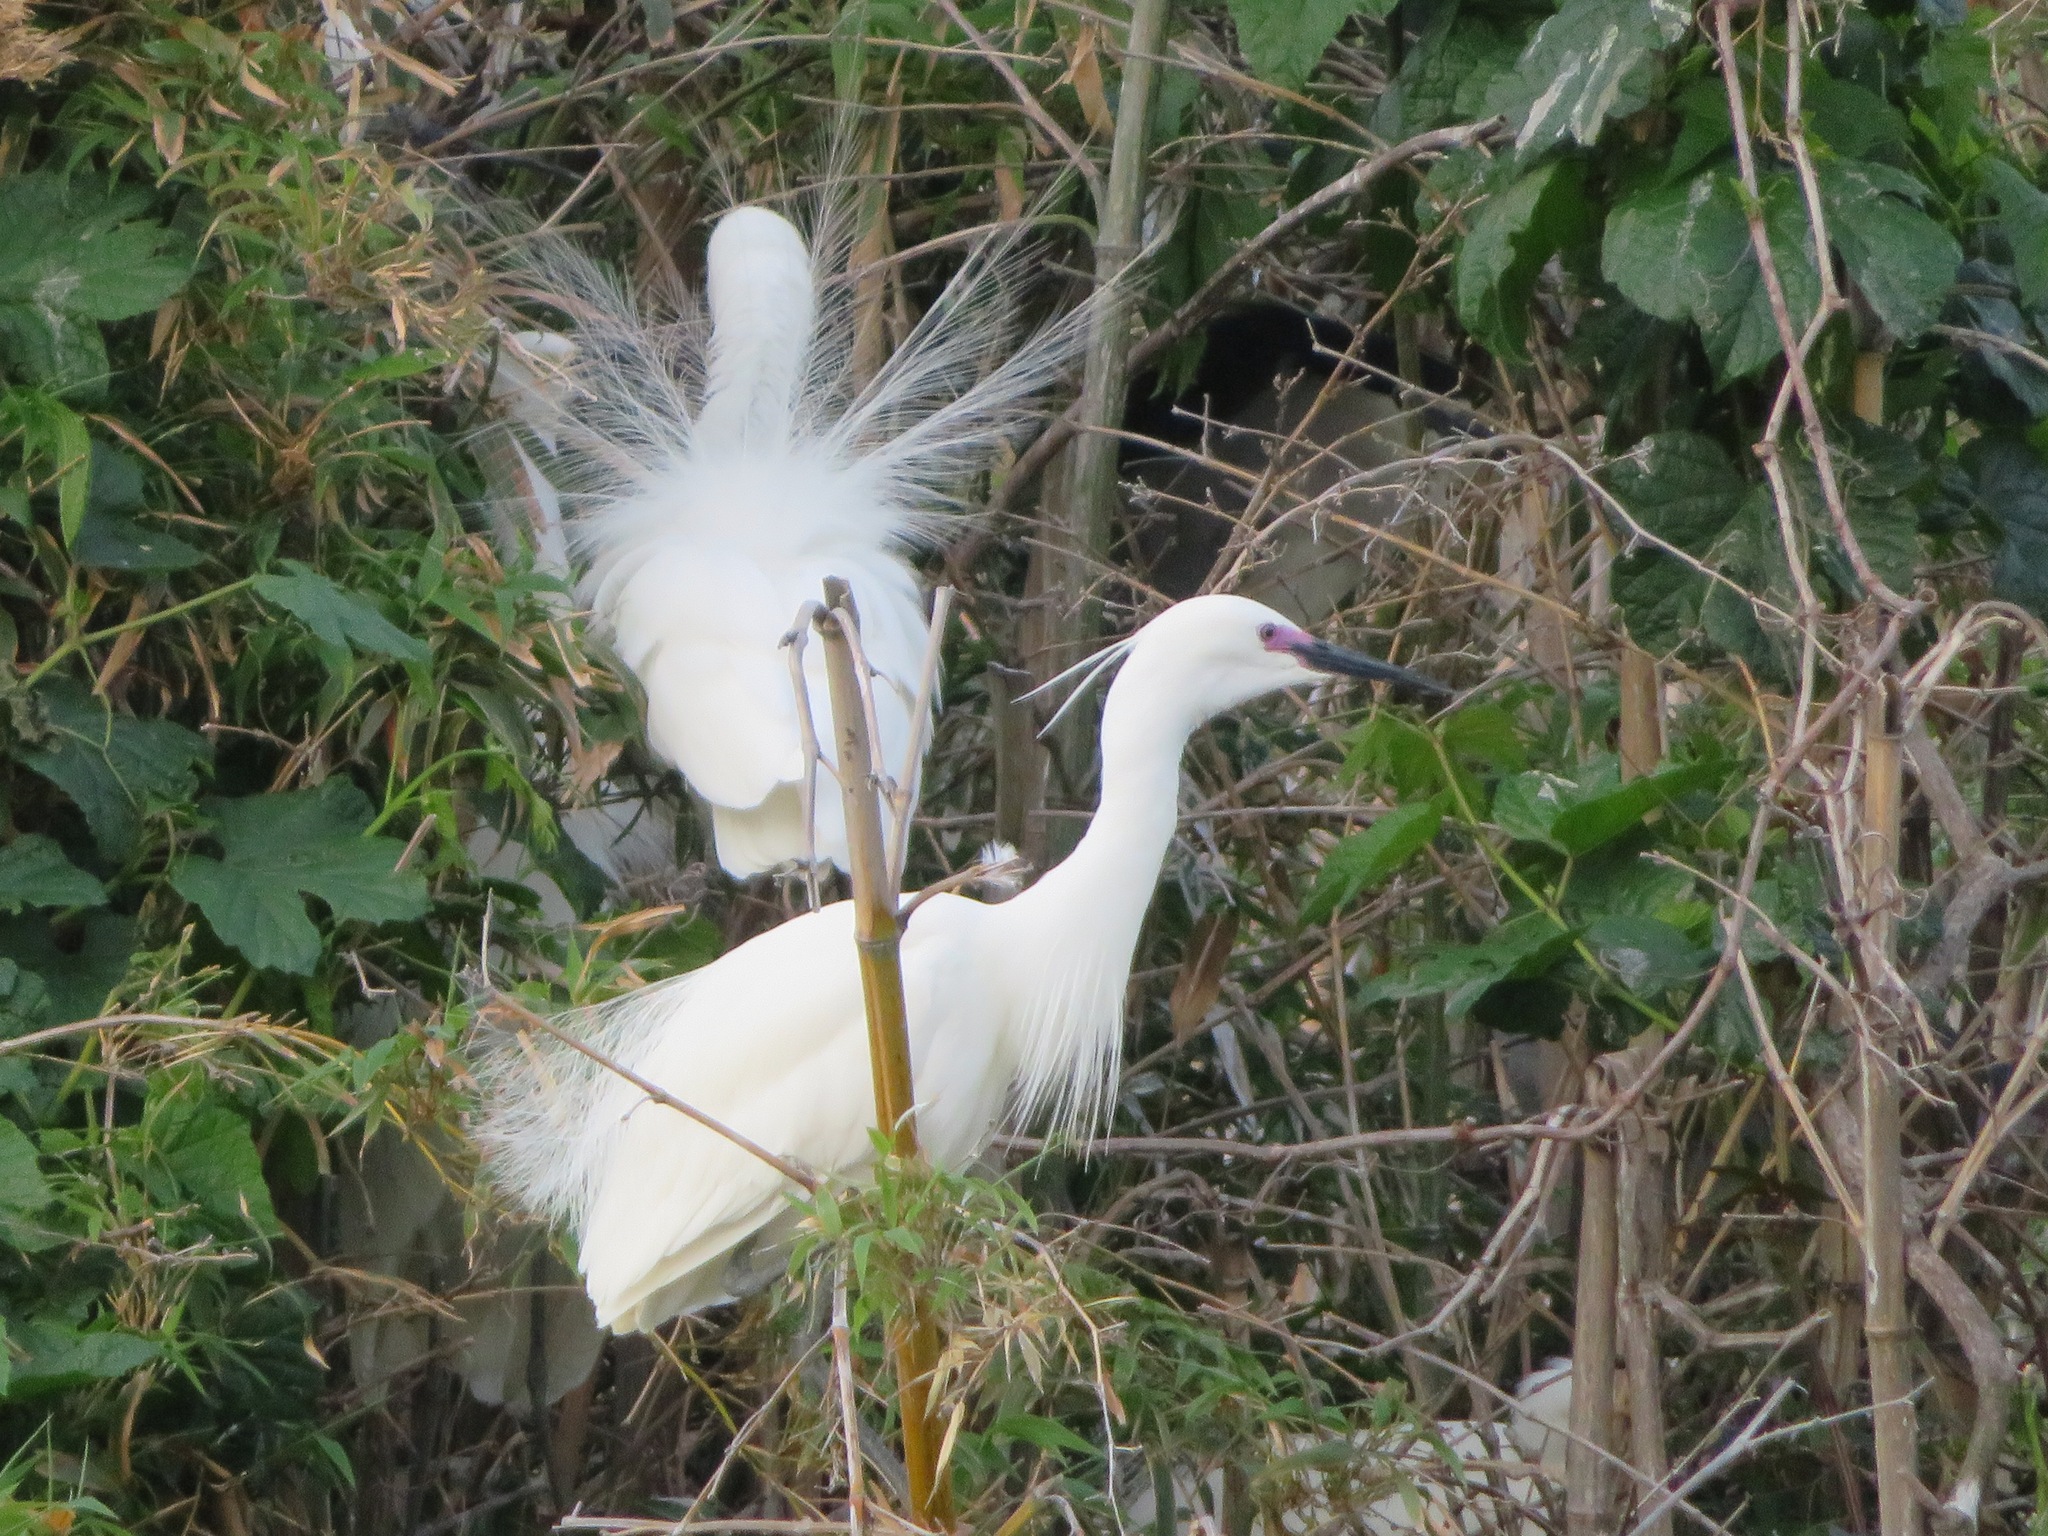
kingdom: Animalia
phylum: Chordata
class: Aves
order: Pelecaniformes
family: Ardeidae
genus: Egretta
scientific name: Egretta garzetta
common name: Little egret
